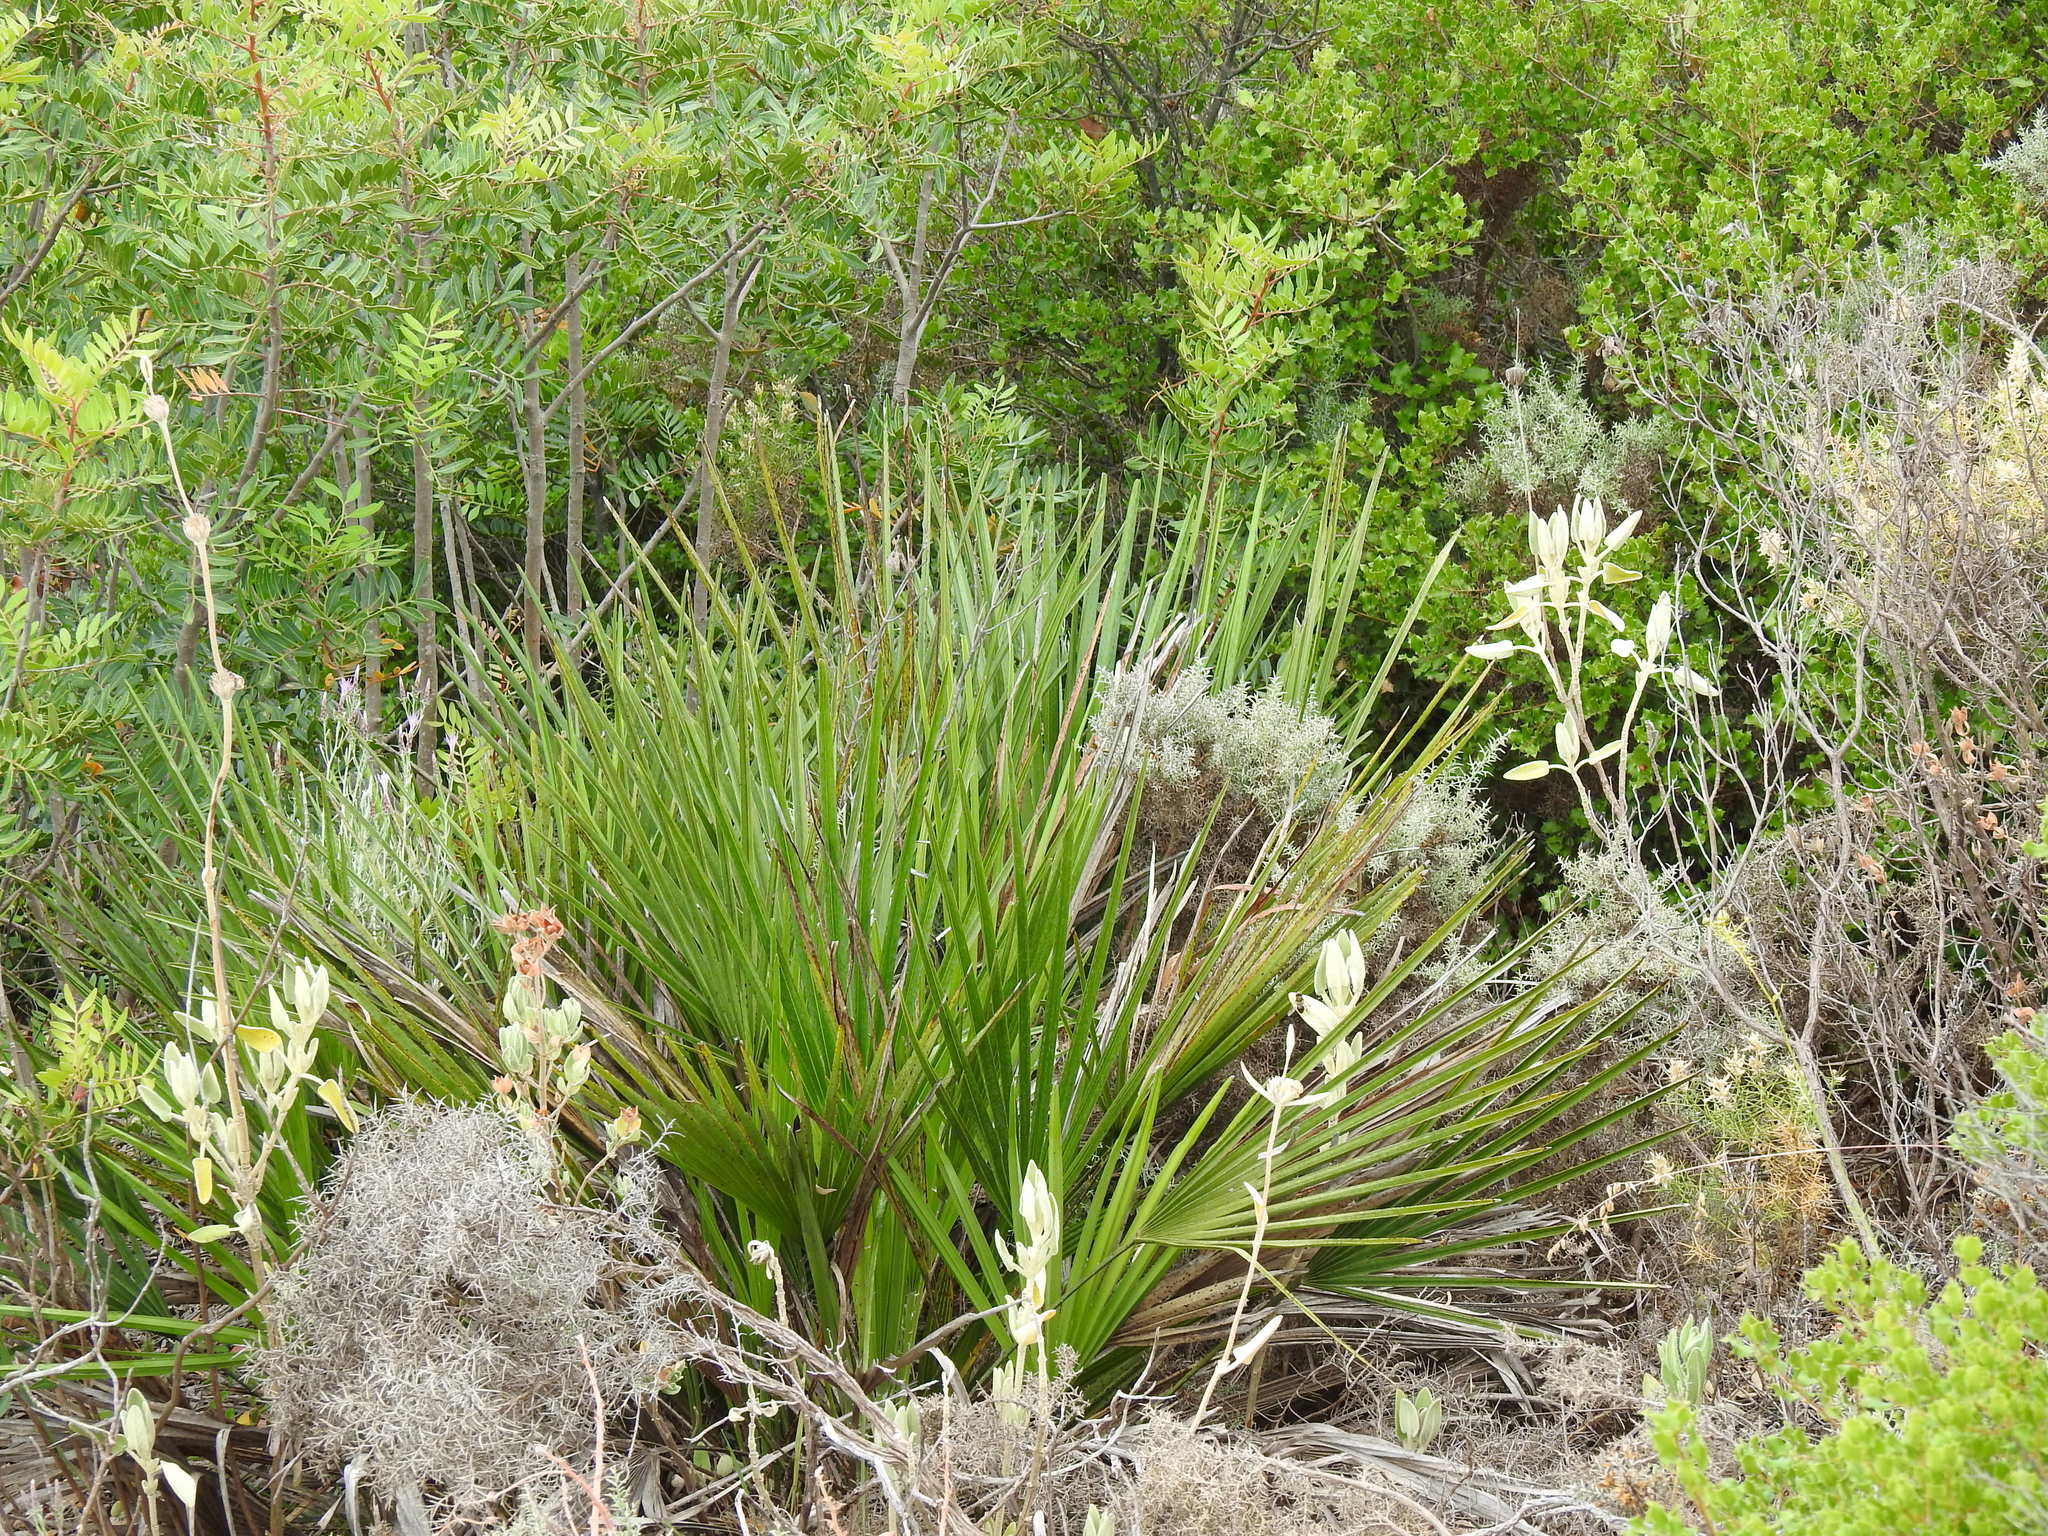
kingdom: Plantae
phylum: Tracheophyta
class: Liliopsida
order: Arecales
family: Arecaceae
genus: Chamaerops
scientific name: Chamaerops humilis
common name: Dwarf fan palm
